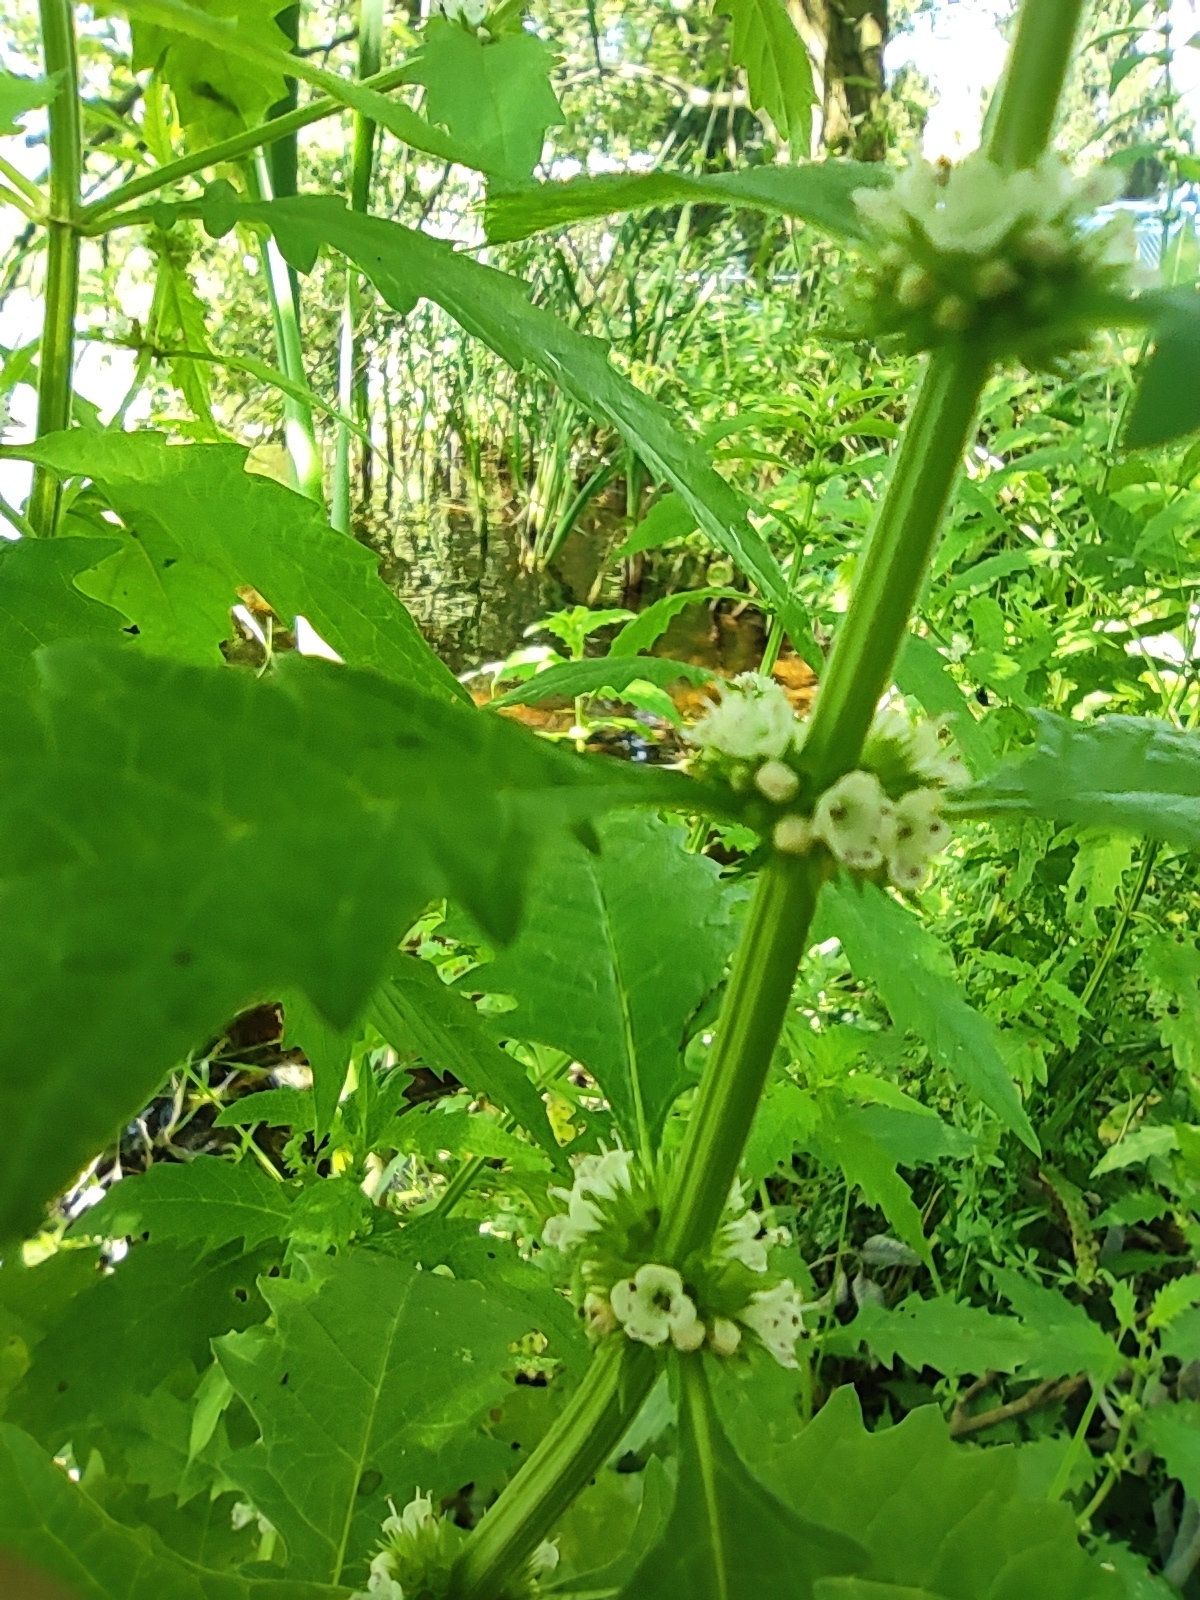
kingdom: Plantae
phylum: Tracheophyta
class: Magnoliopsida
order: Lamiales
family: Lamiaceae
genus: Lycopus
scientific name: Lycopus europaeus
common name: European bugleweed
